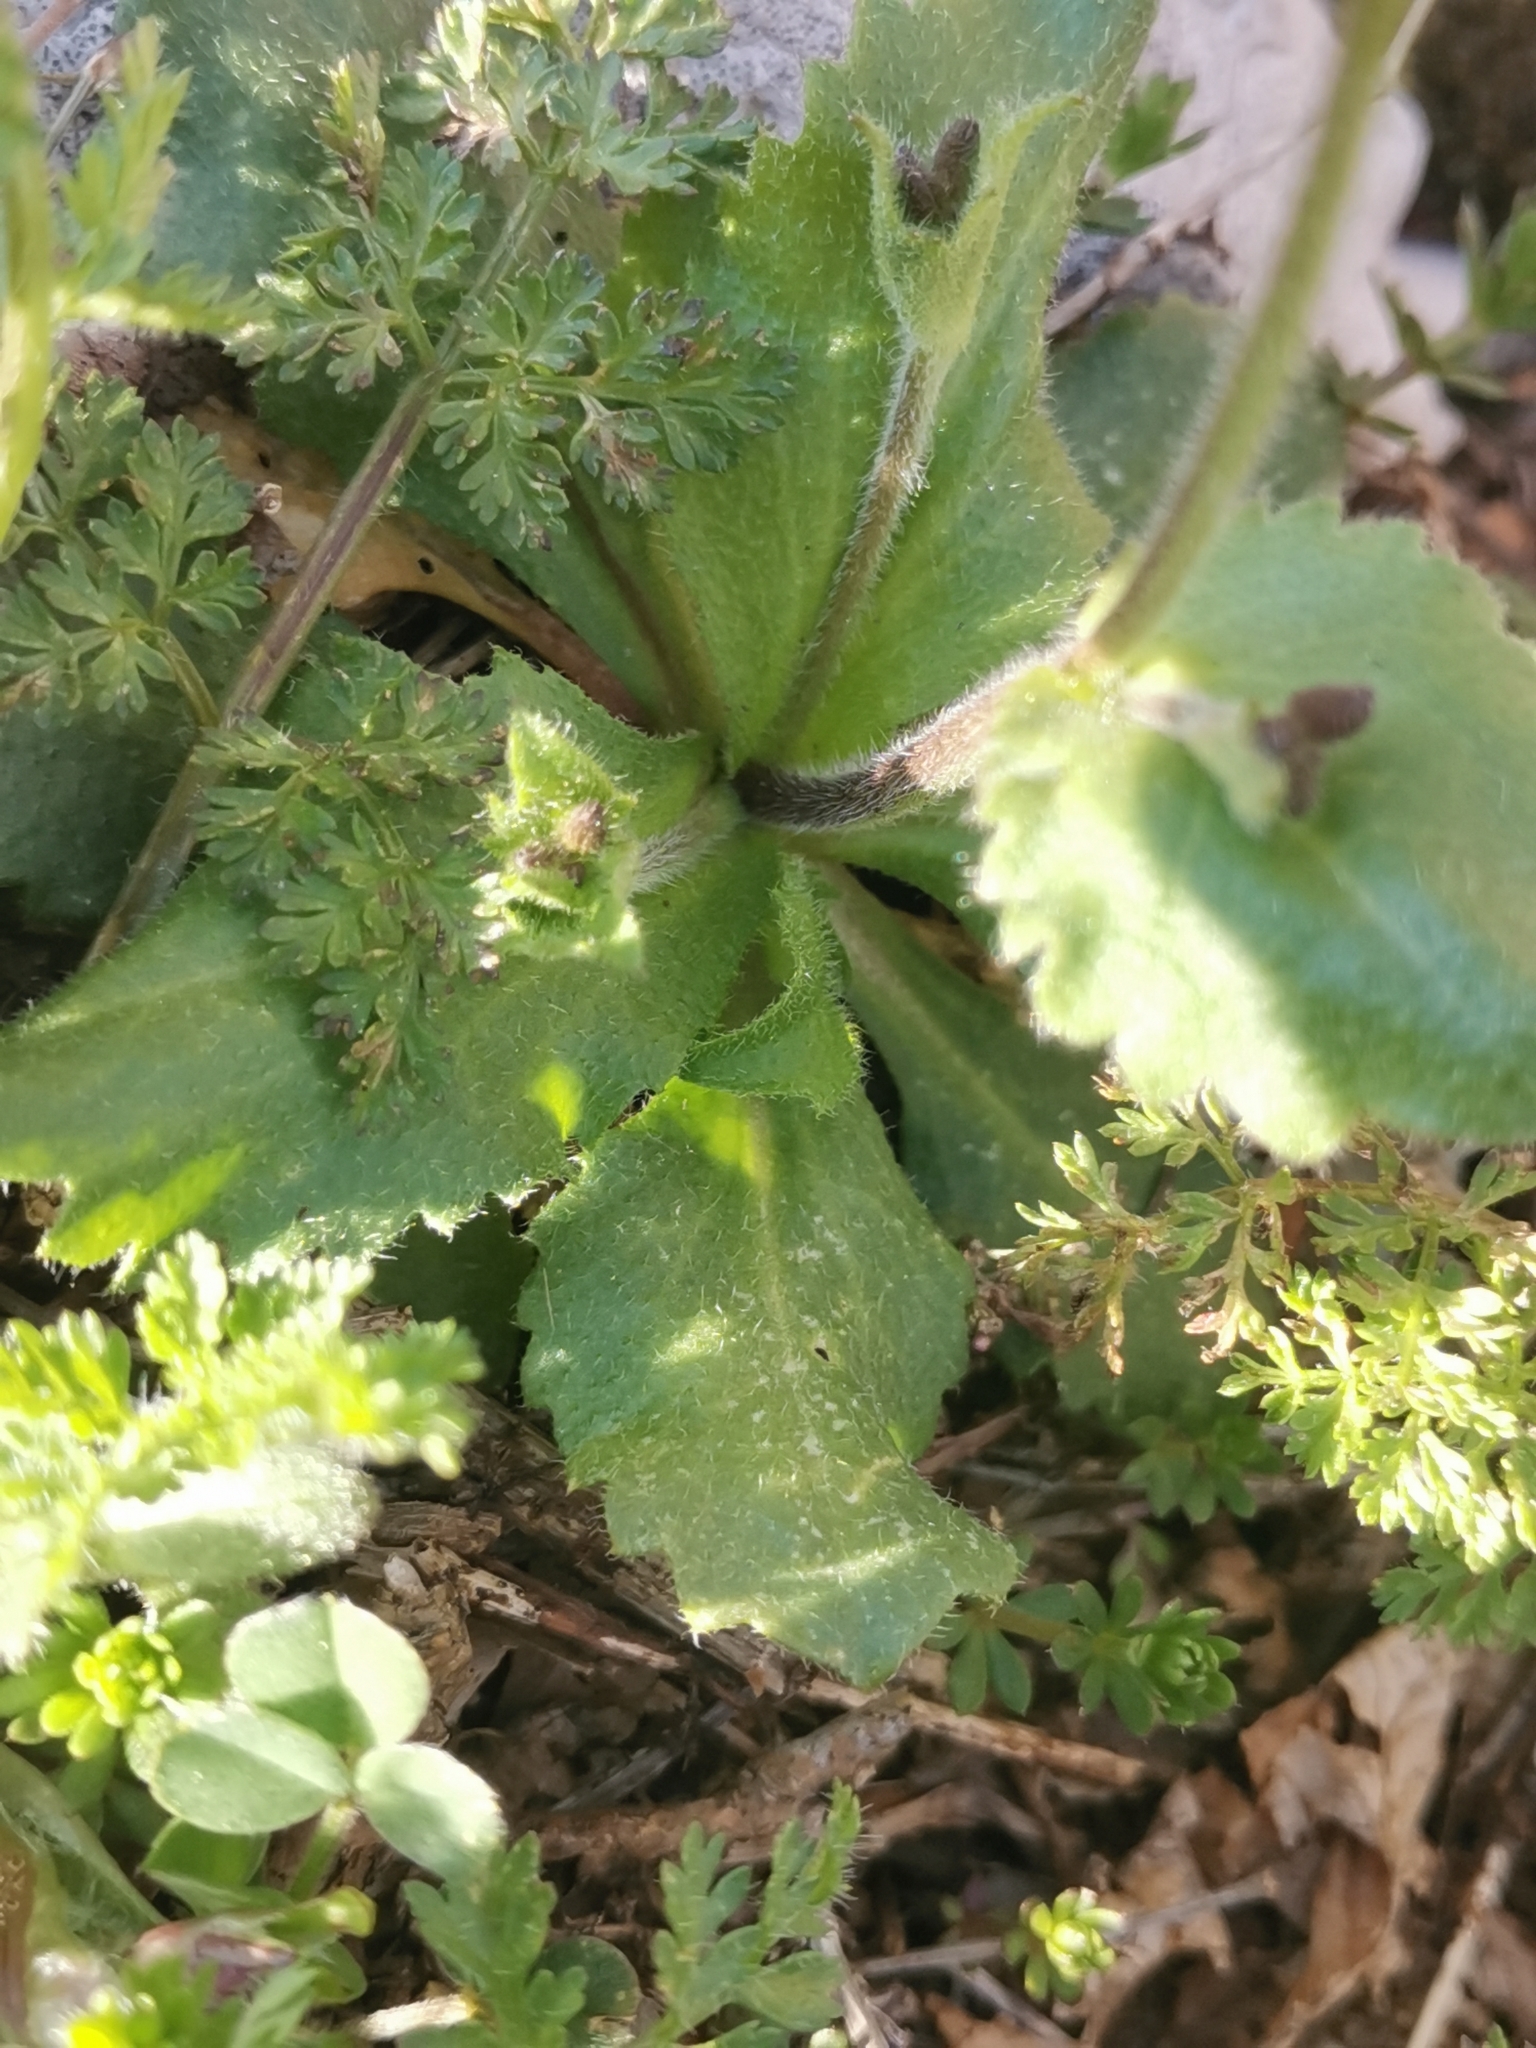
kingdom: Plantae
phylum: Tracheophyta
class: Magnoliopsida
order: Brassicales
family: Brassicaceae
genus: Arabis
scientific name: Arabis verna
